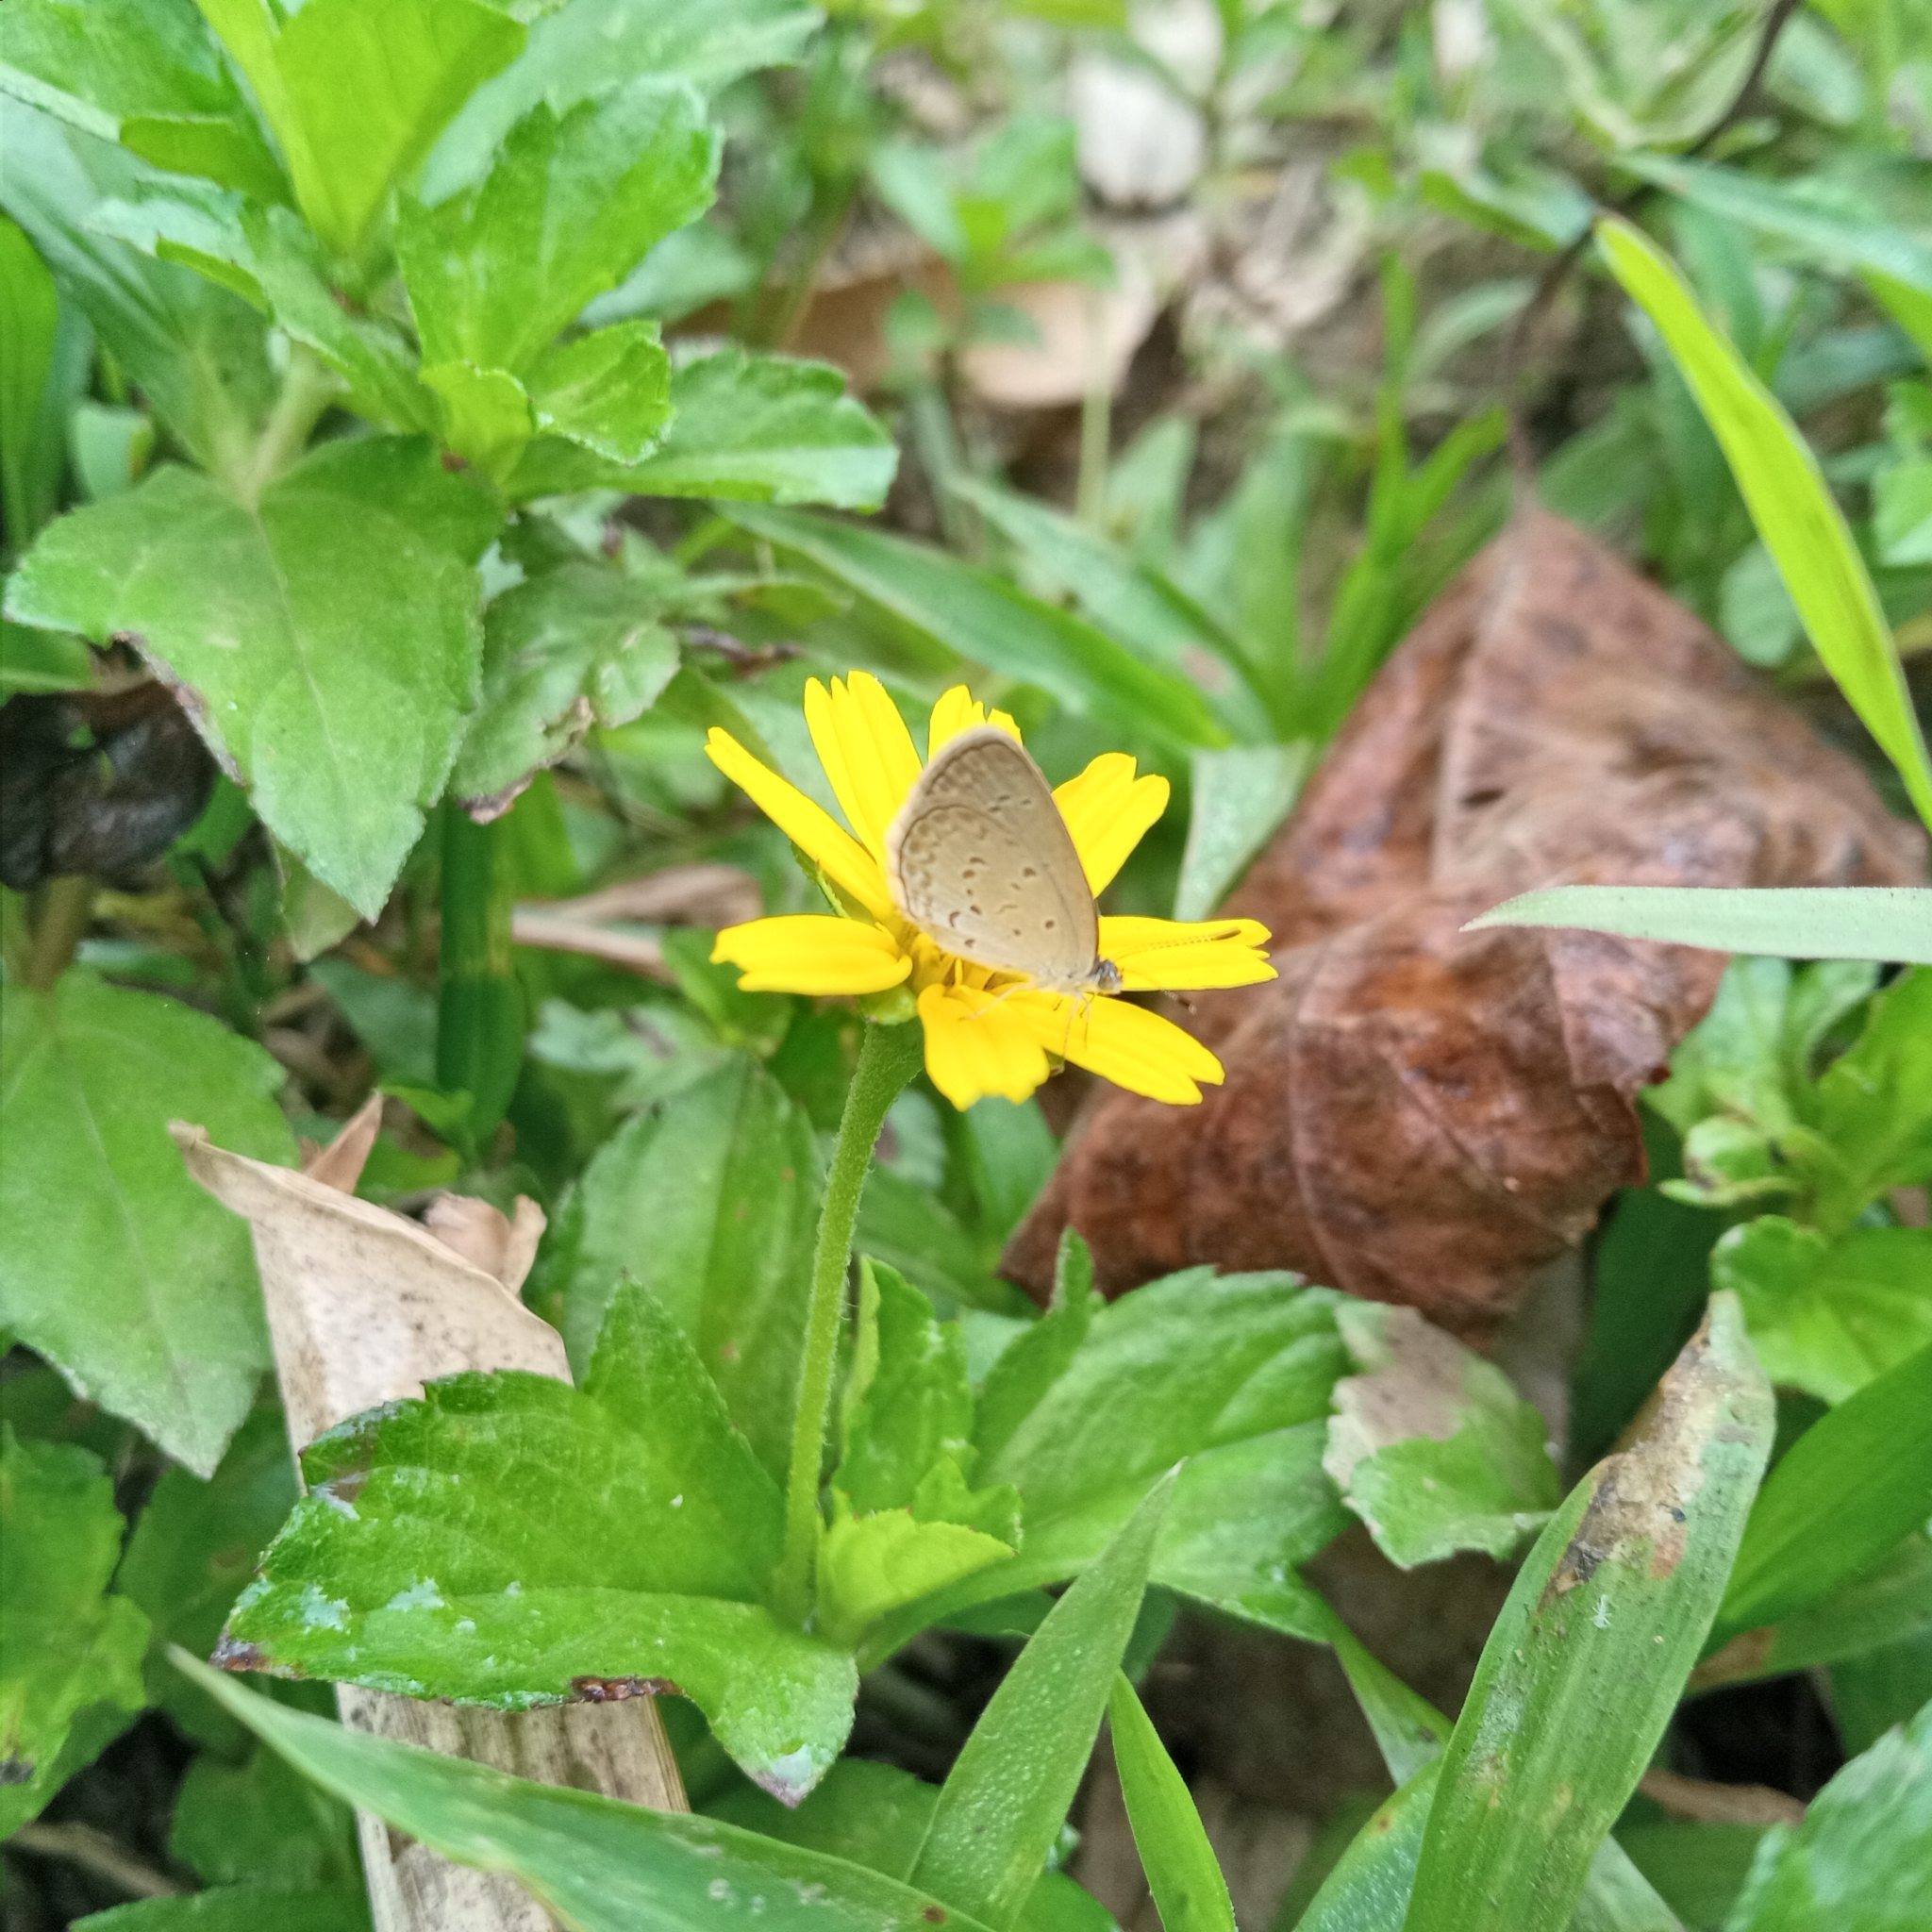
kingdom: Animalia
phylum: Arthropoda
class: Insecta
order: Lepidoptera
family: Lycaenidae
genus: Zizina
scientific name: Zizina otis
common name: Lesser grass blue
